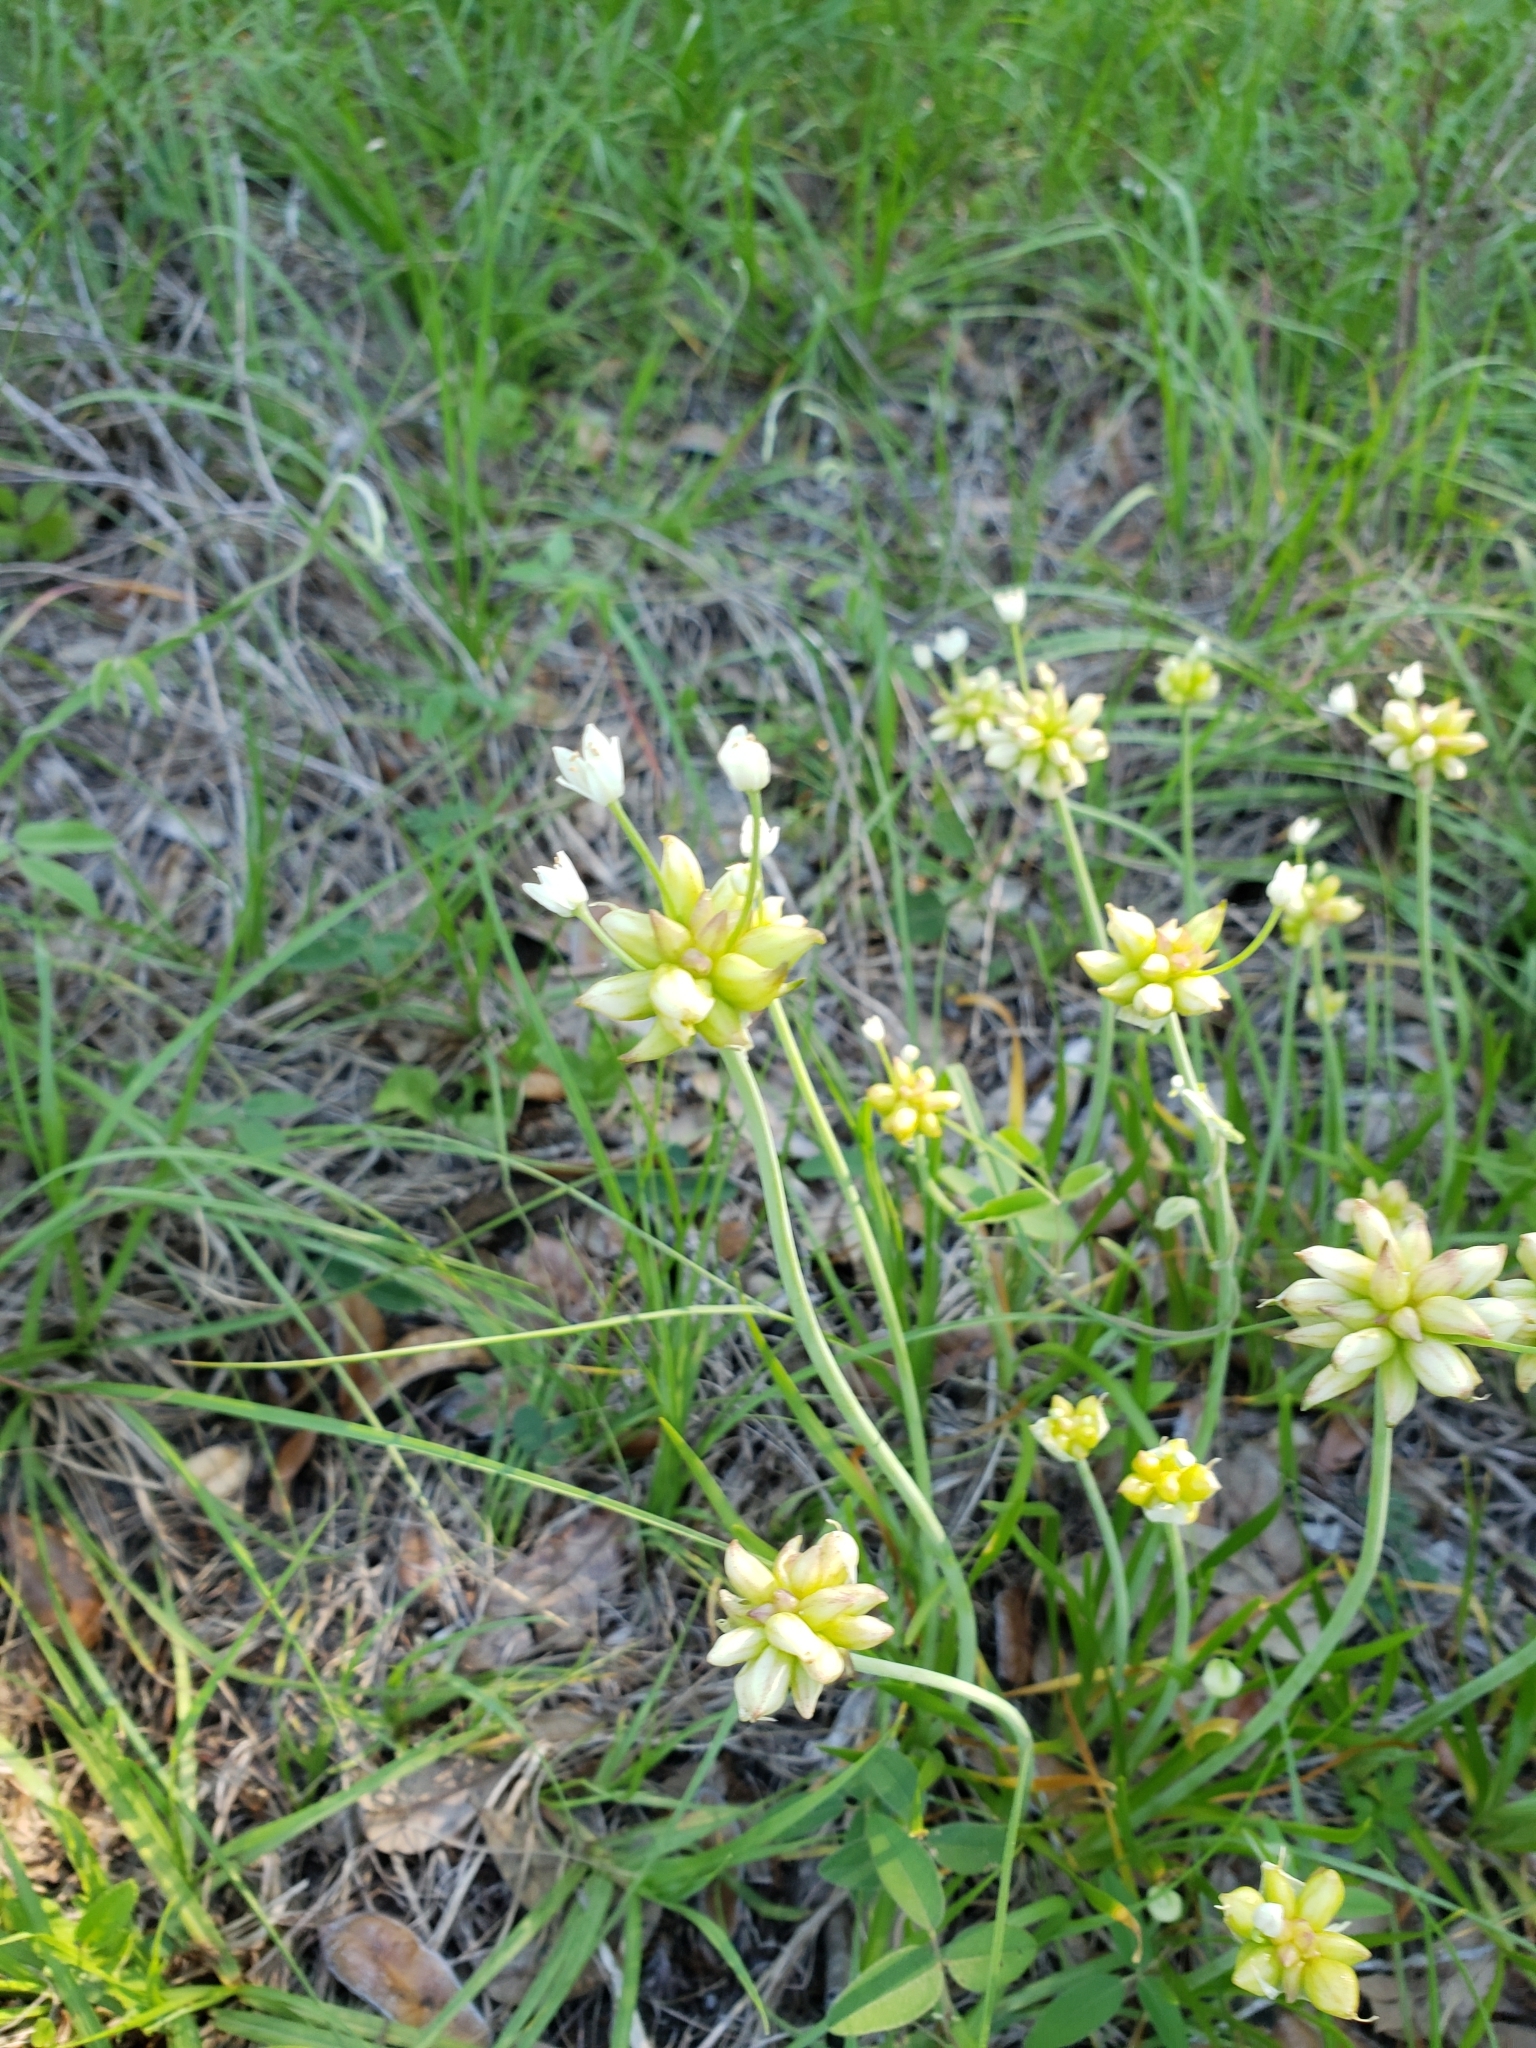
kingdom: Plantae
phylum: Tracheophyta
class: Liliopsida
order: Asparagales
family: Amaryllidaceae
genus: Allium
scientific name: Allium canadense
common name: Meadow garlic
